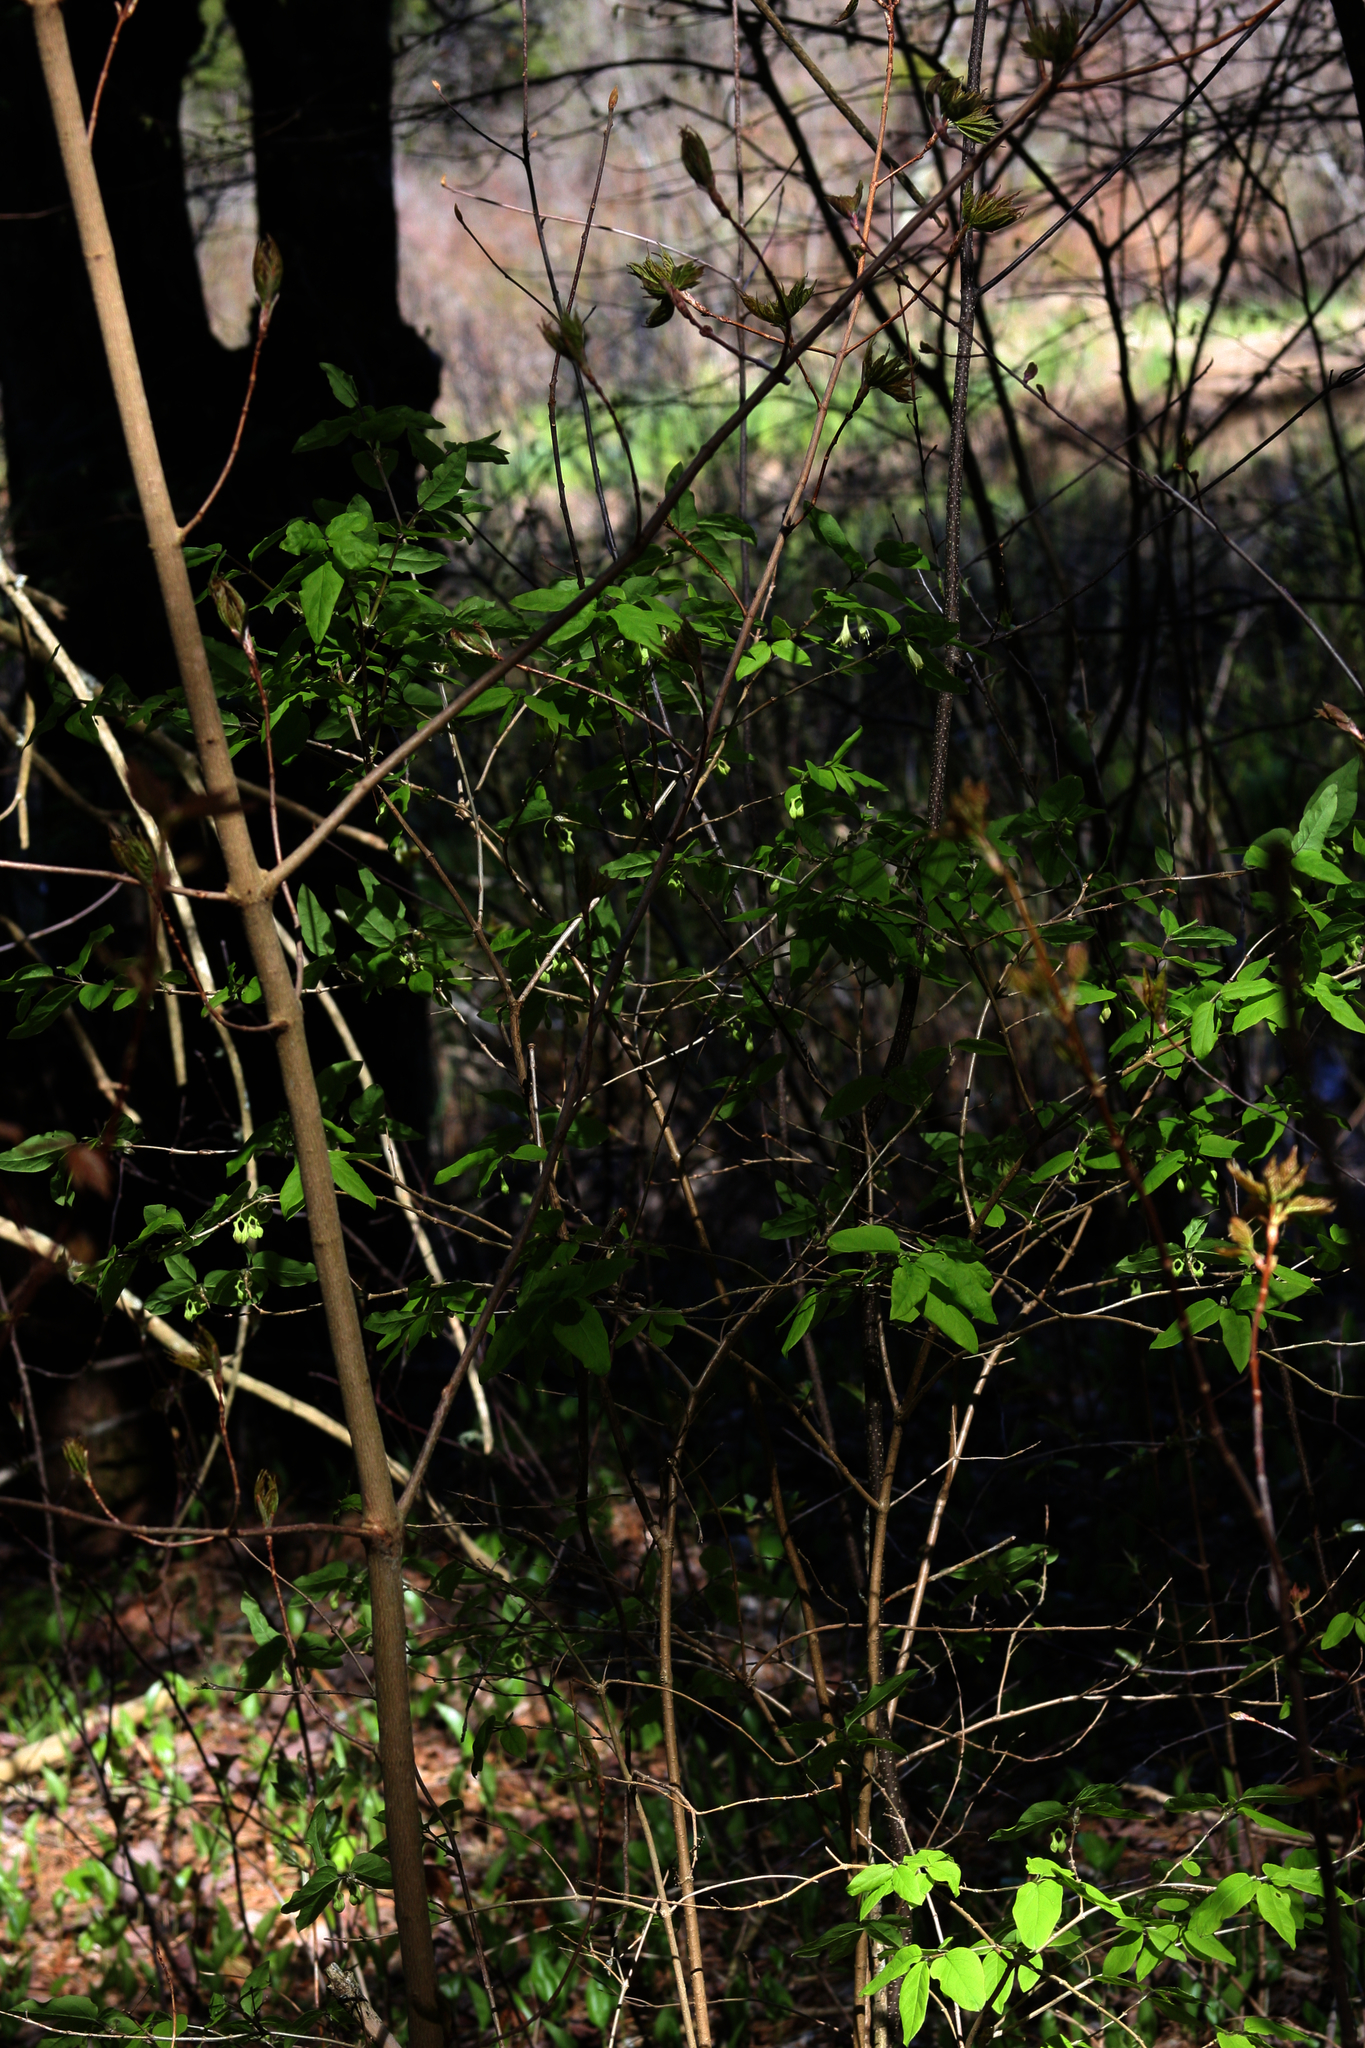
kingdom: Plantae
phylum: Tracheophyta
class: Magnoliopsida
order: Dipsacales
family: Caprifoliaceae
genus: Lonicera
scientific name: Lonicera canadensis
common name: American fly-honeysuckle
